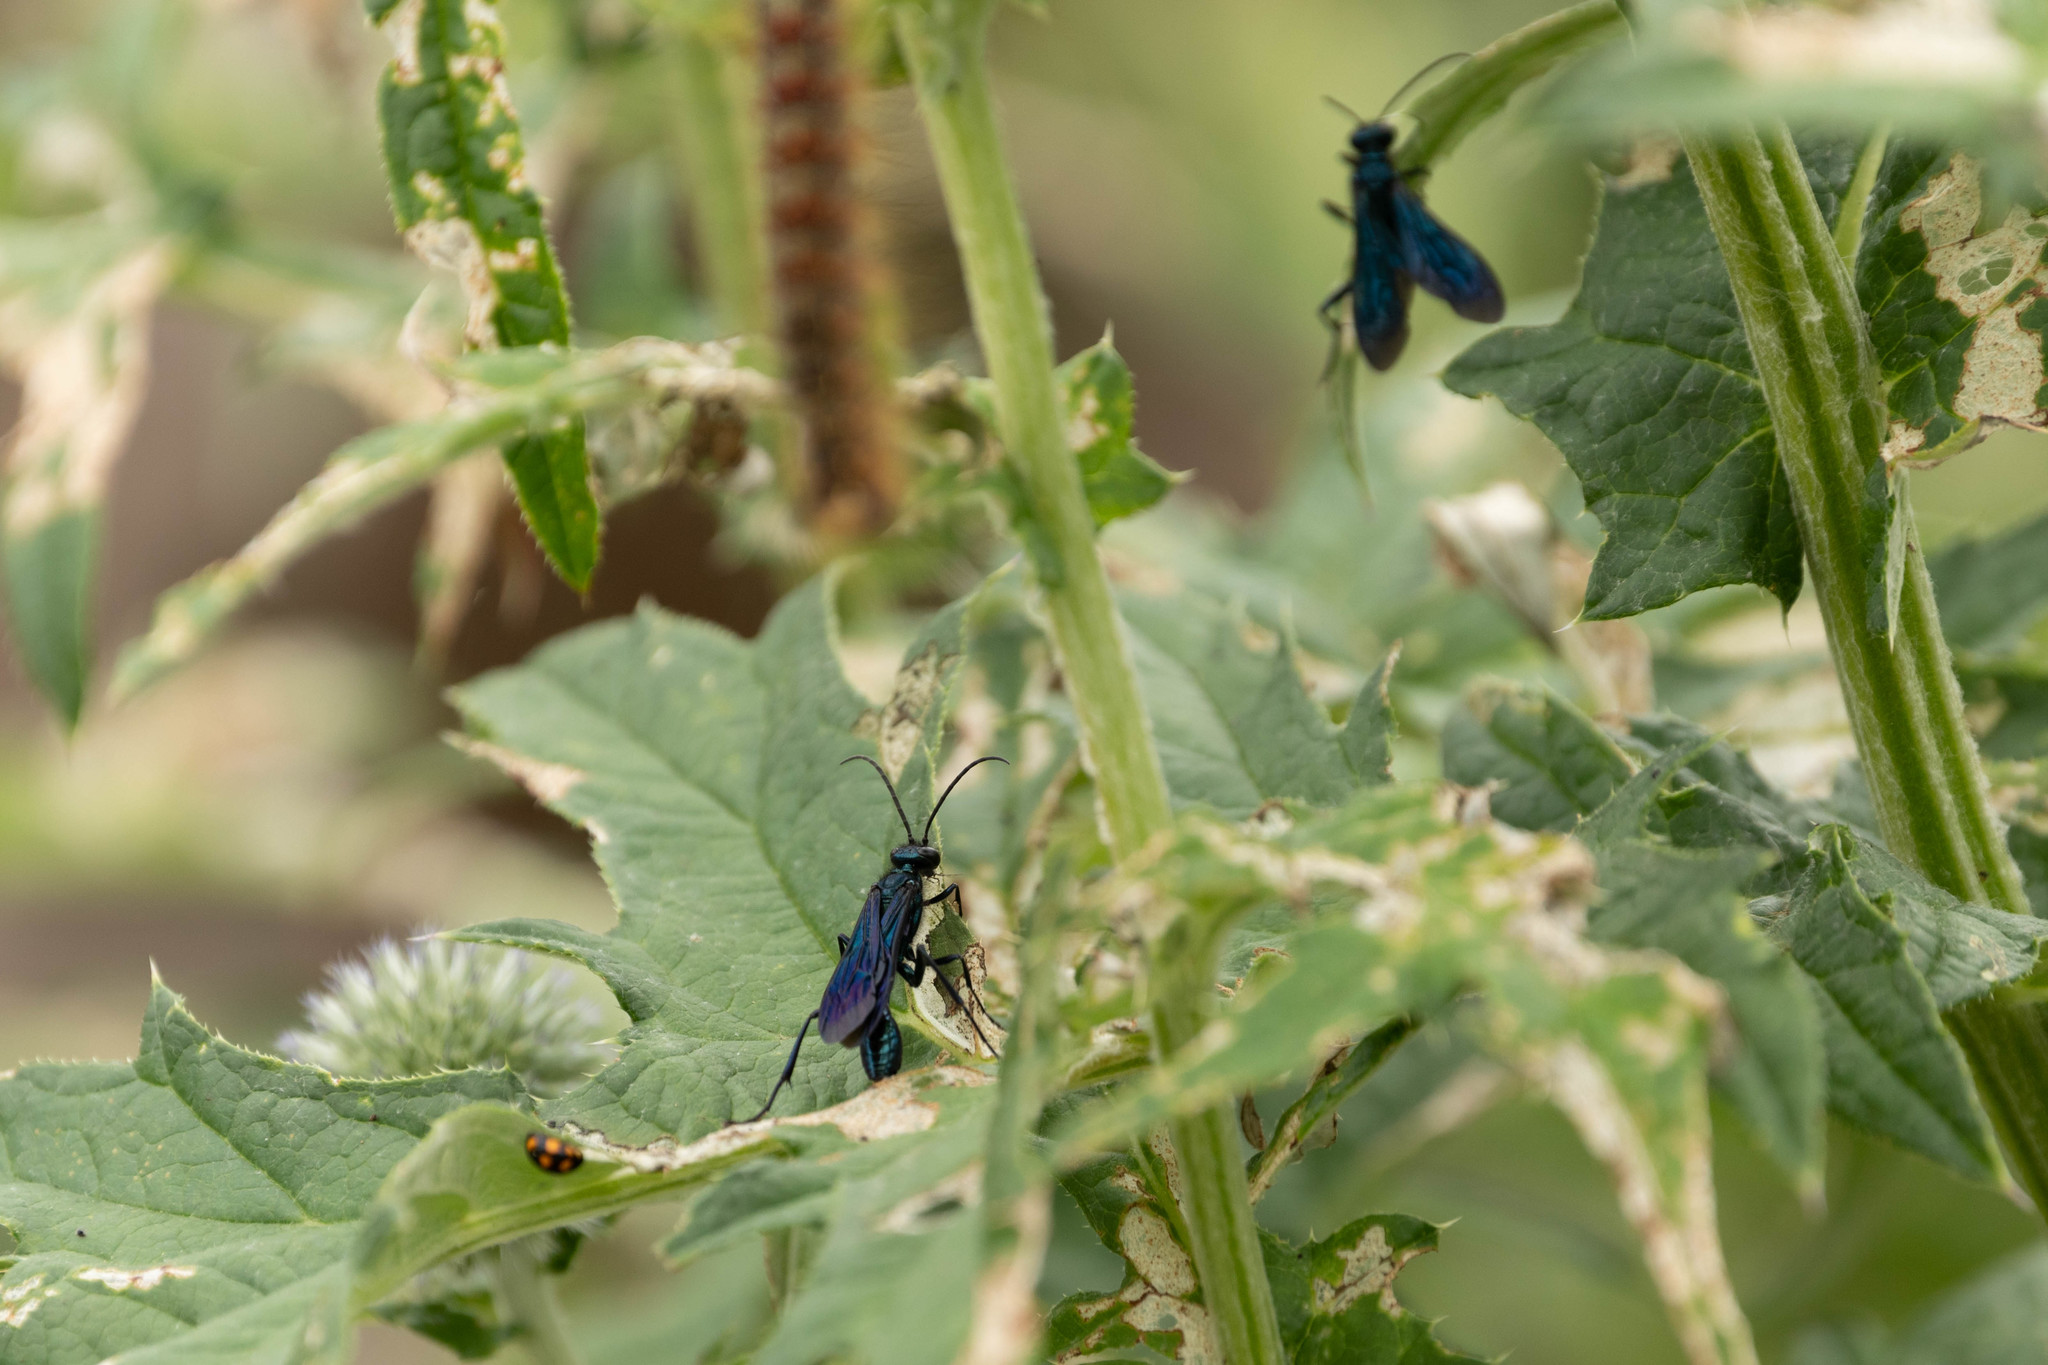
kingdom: Animalia
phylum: Arthropoda
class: Insecta
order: Hymenoptera
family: Sphecidae
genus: Chalybion
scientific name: Chalybion californicum
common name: Mud dauber
